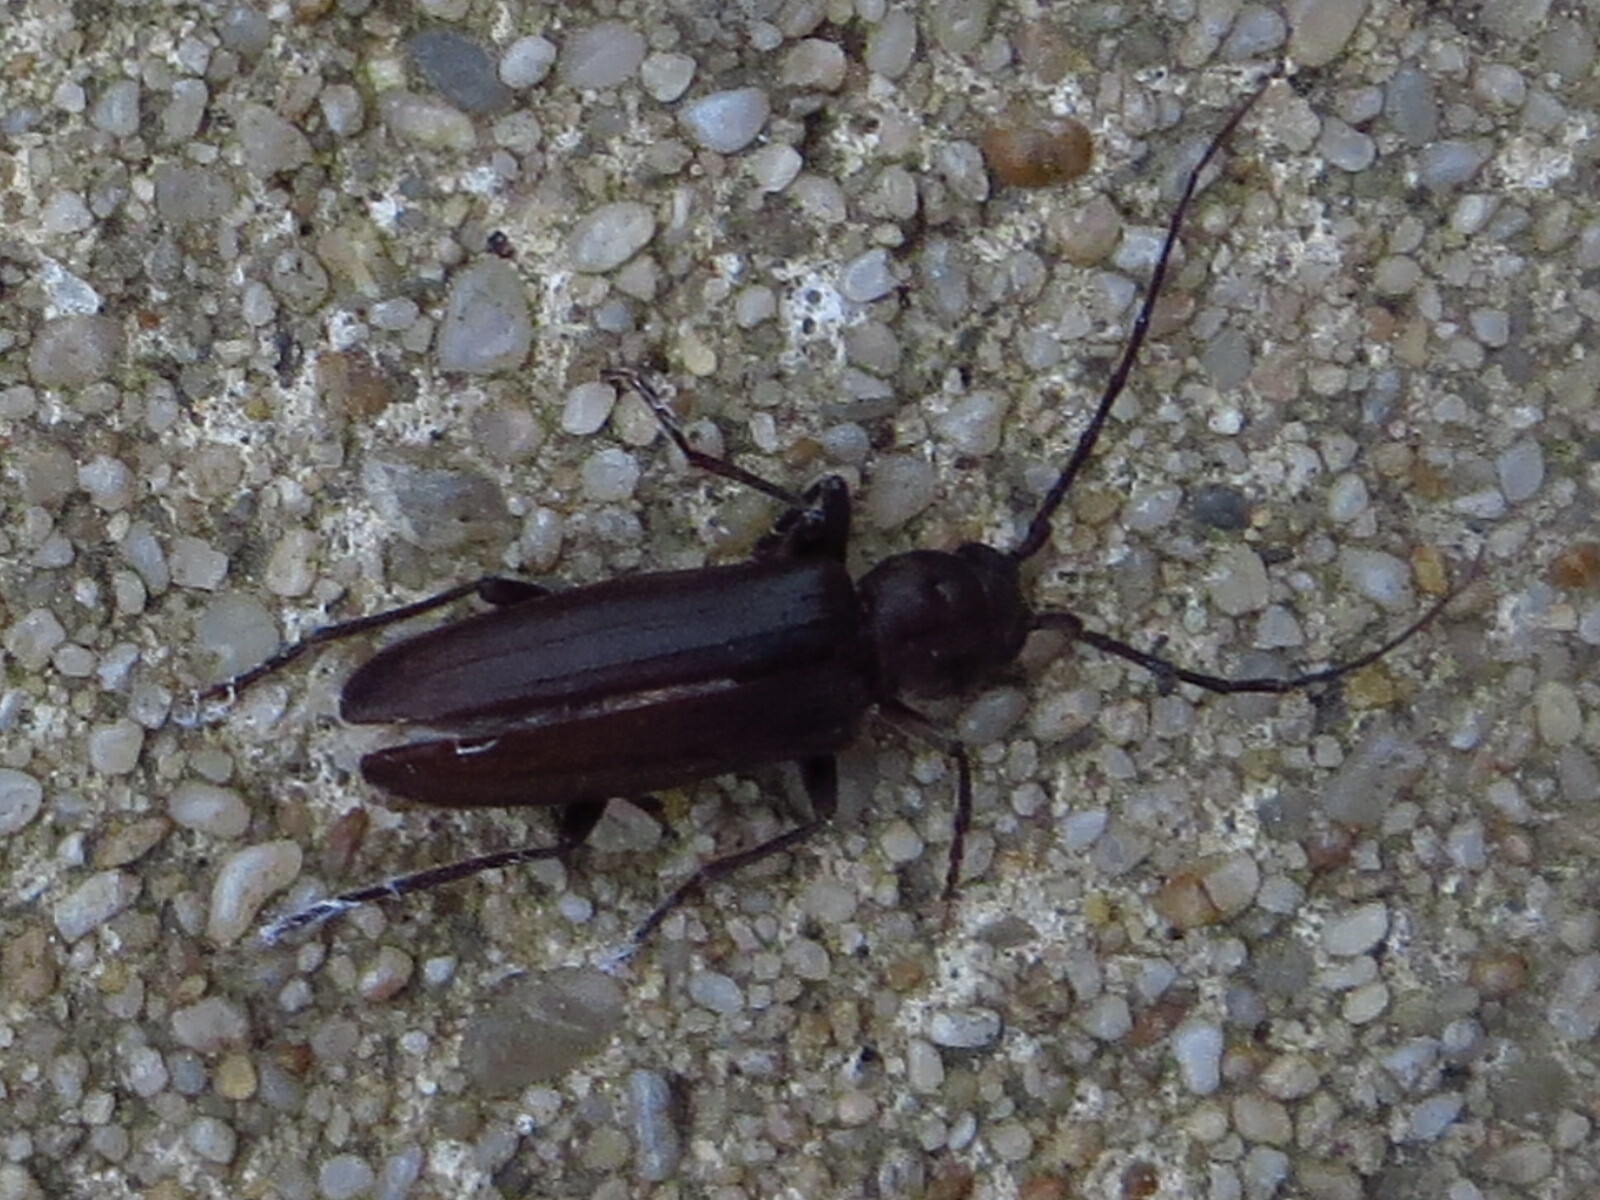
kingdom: Animalia
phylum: Arthropoda
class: Insecta
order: Coleoptera
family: Cerambycidae
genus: Arhopalus
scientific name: Arhopalus ferus
